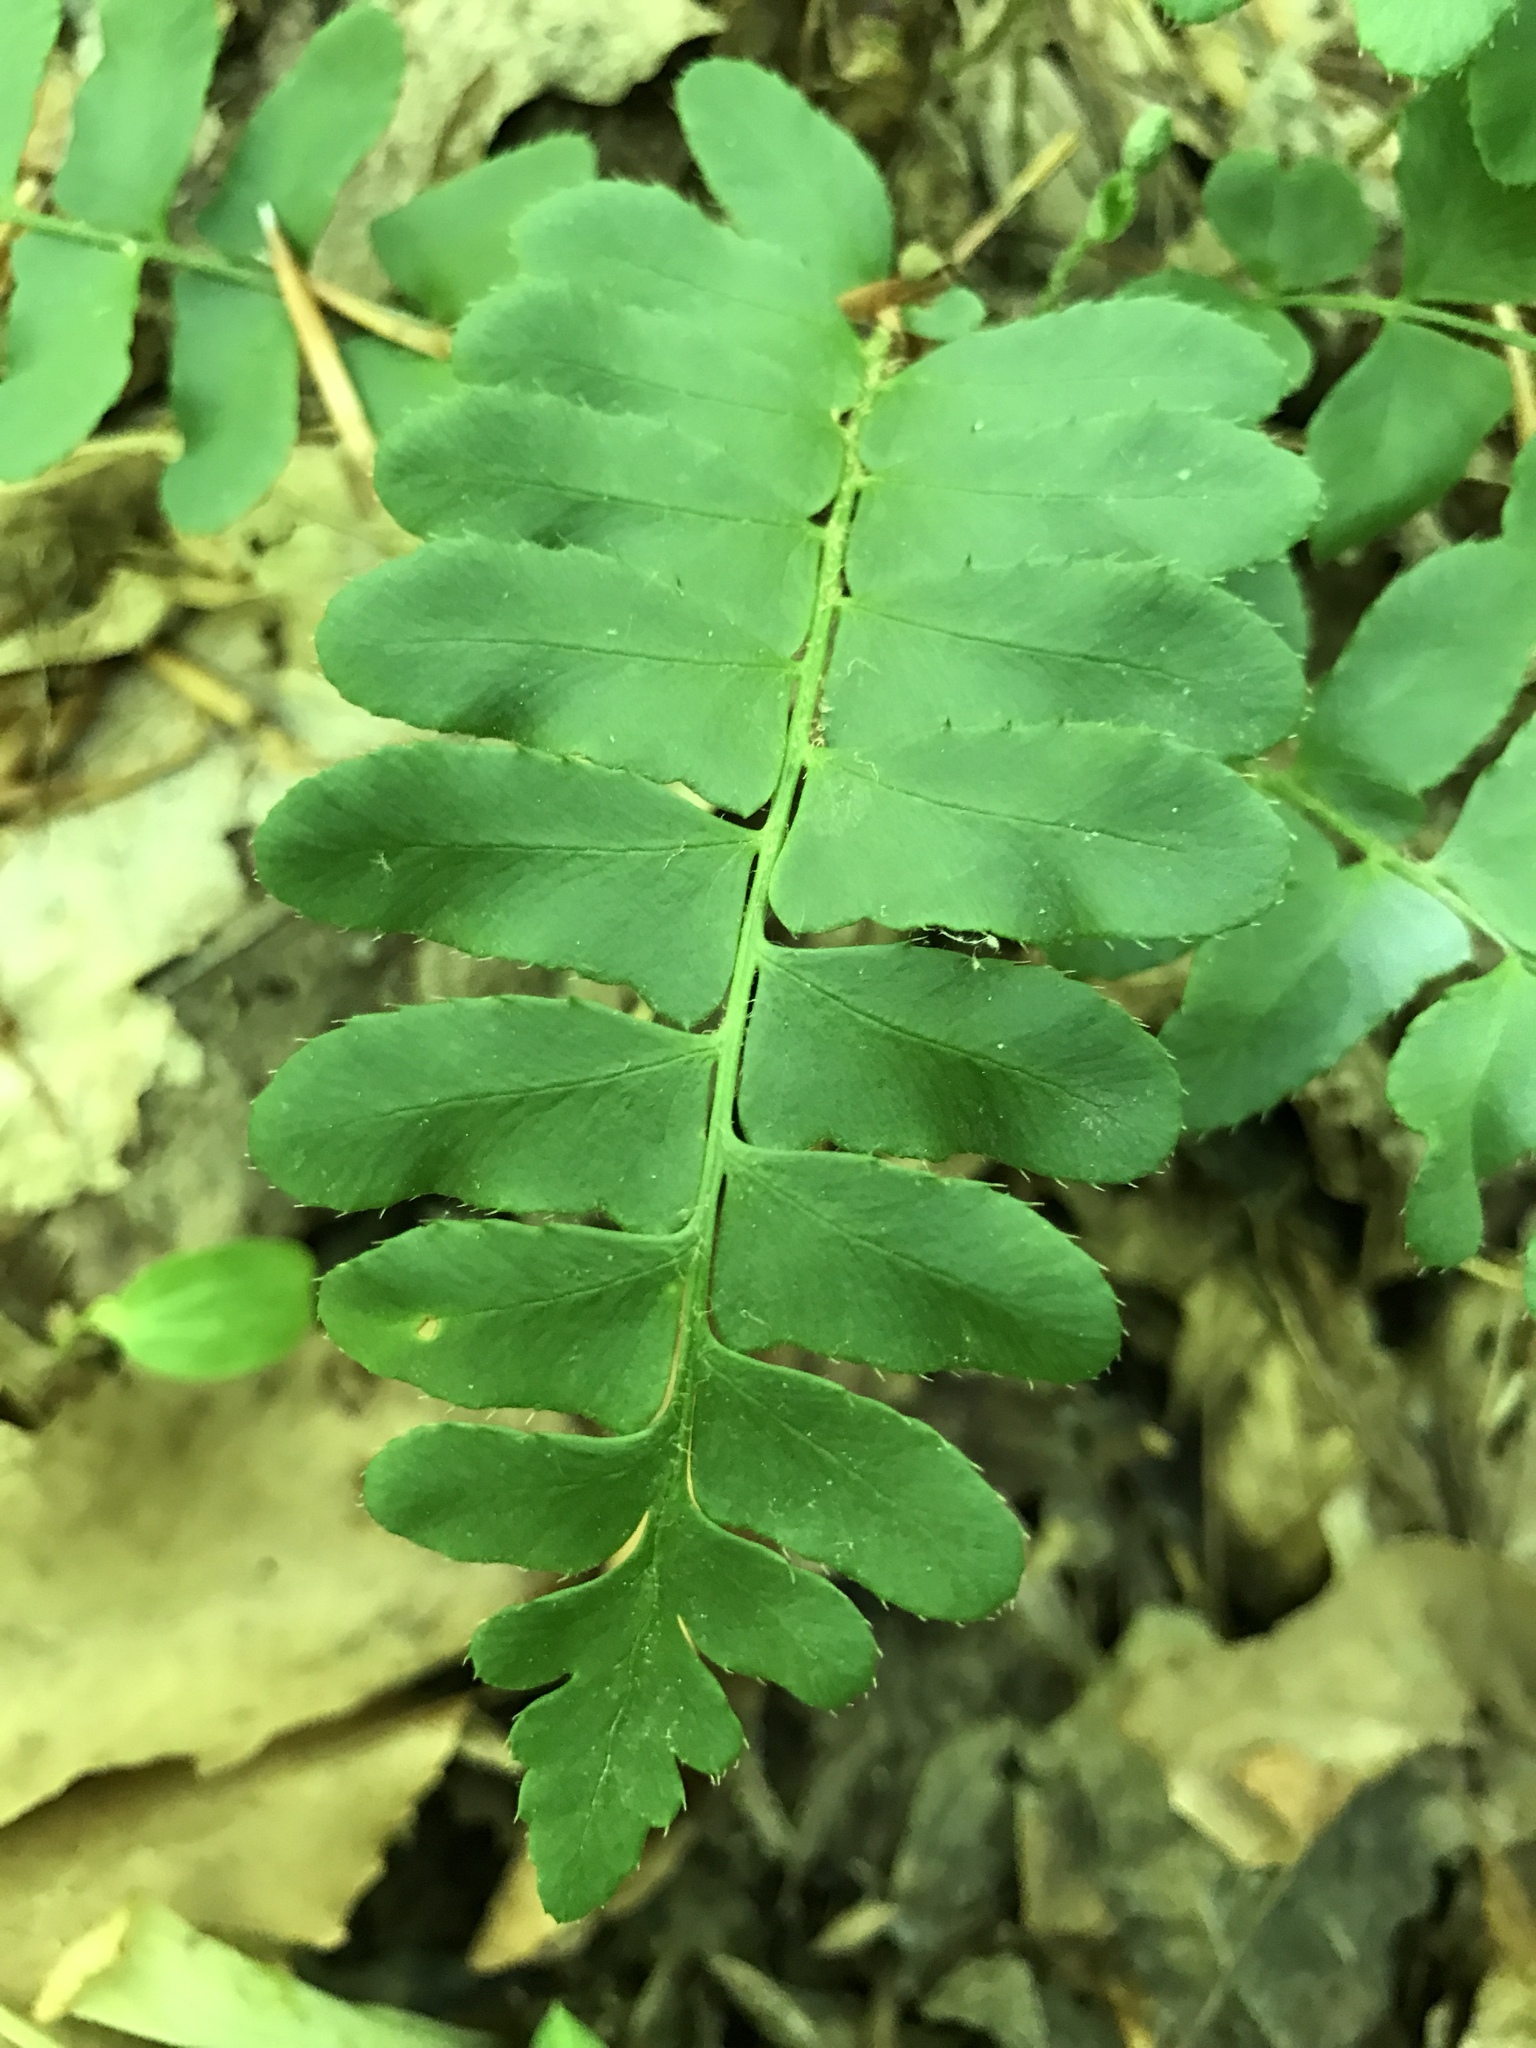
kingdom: Plantae
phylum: Tracheophyta
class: Polypodiopsida
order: Polypodiales
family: Dryopteridaceae
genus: Polystichum
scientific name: Polystichum acrostichoides
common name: Christmas fern
